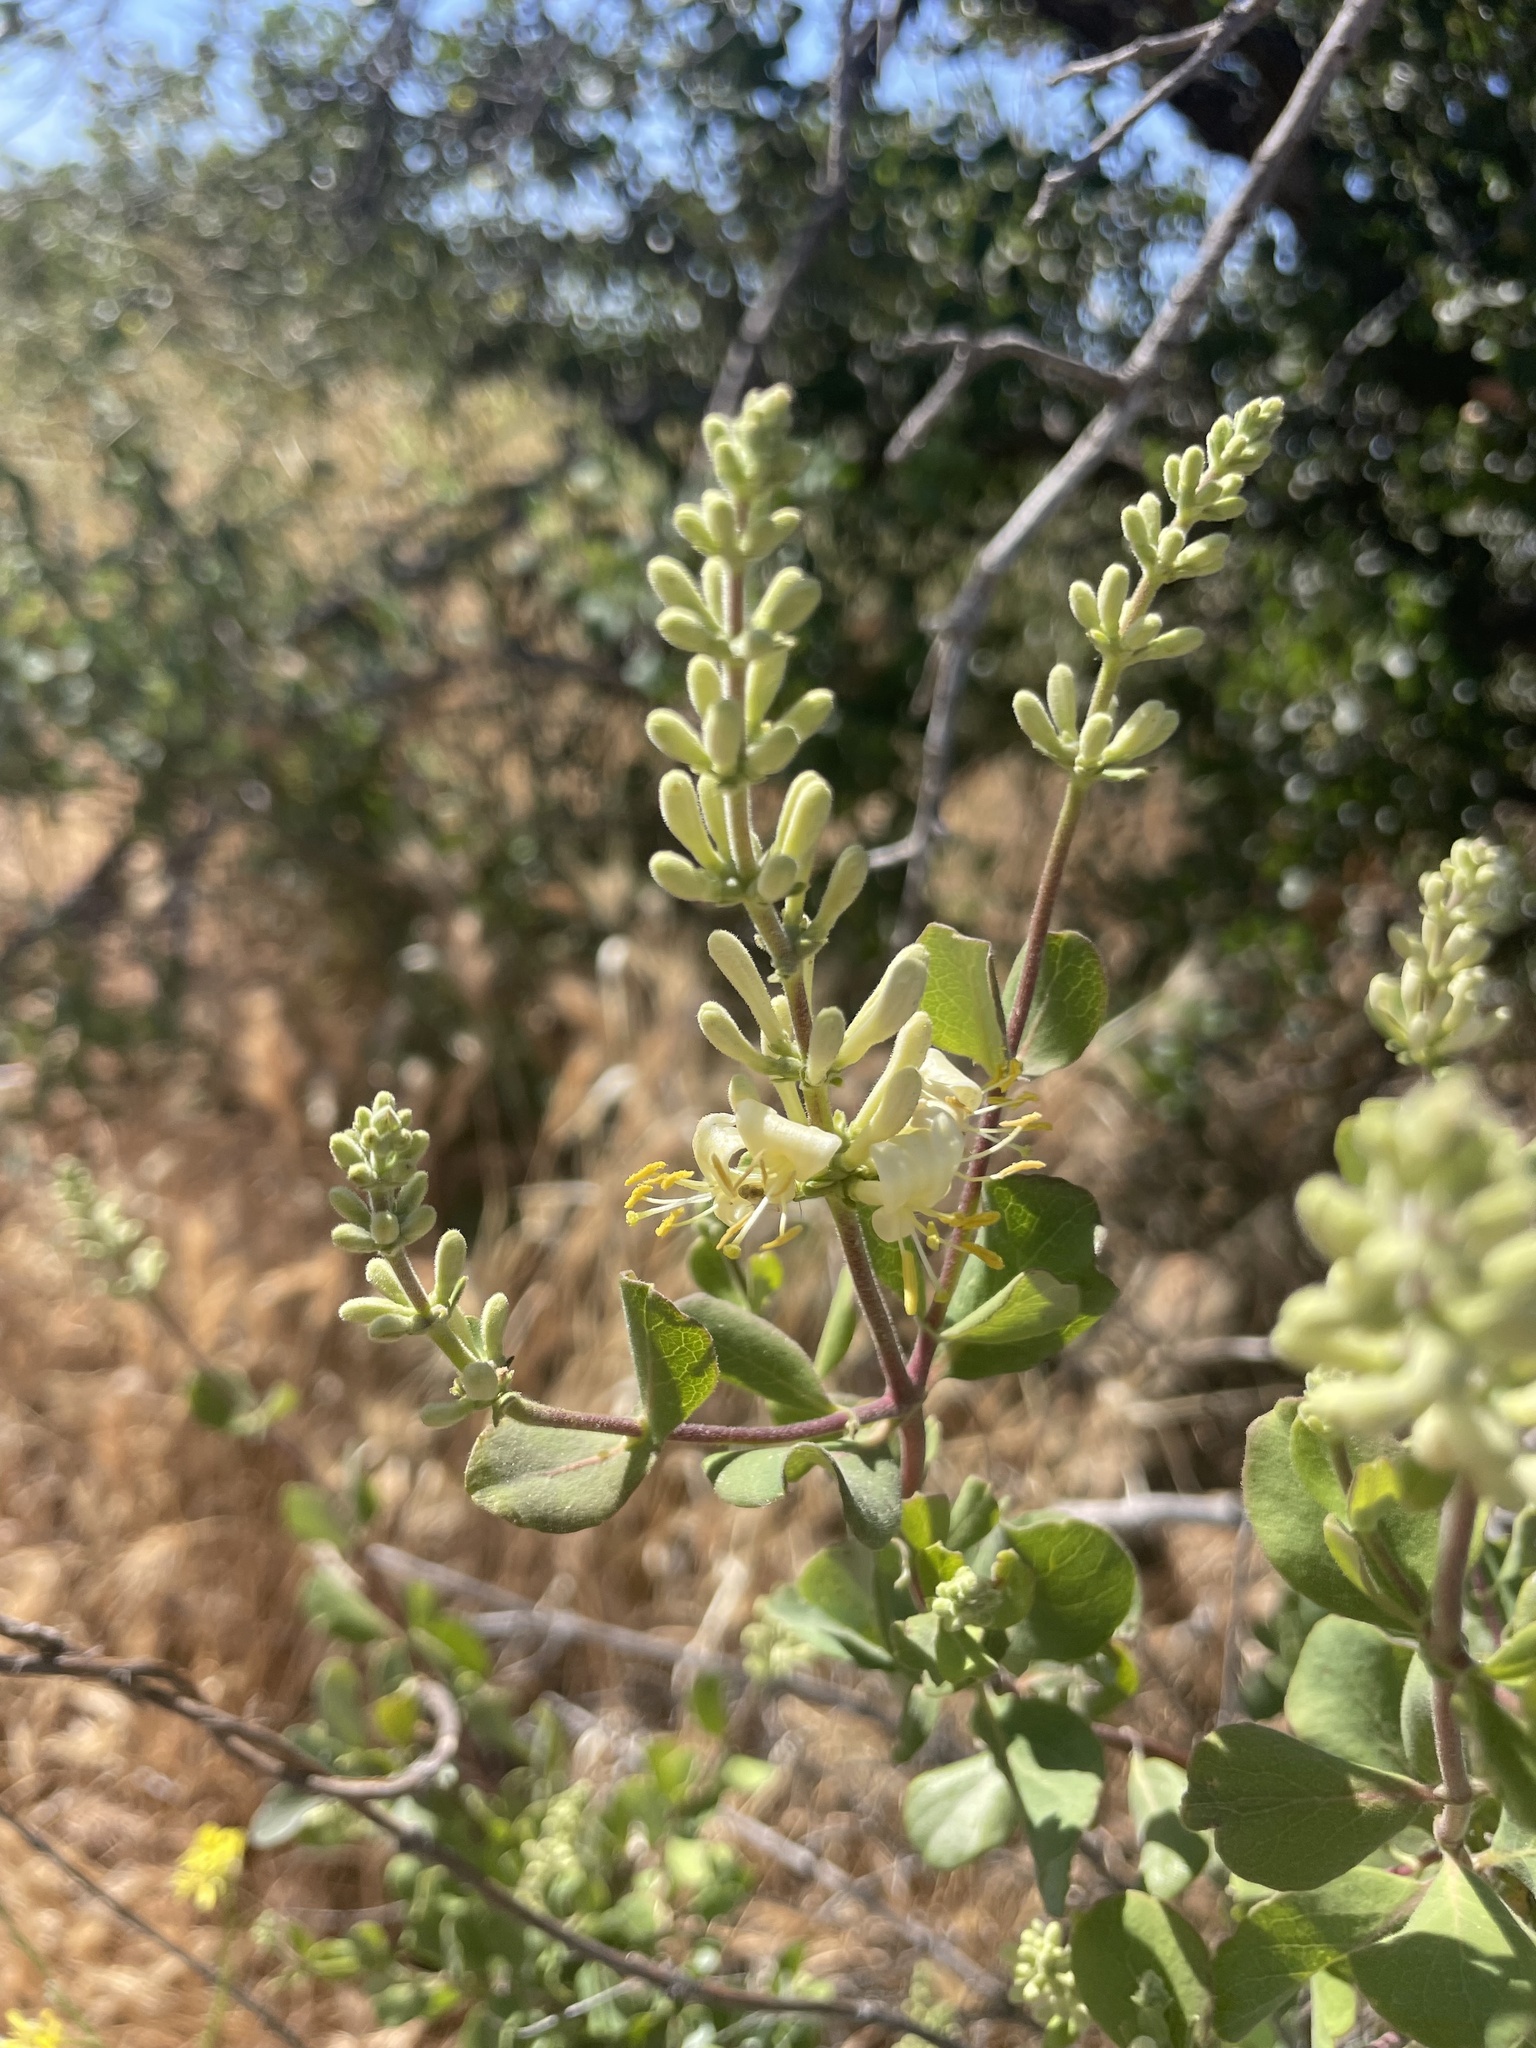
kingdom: Plantae
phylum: Tracheophyta
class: Magnoliopsida
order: Dipsacales
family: Caprifoliaceae
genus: Lonicera
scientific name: Lonicera subspicata
